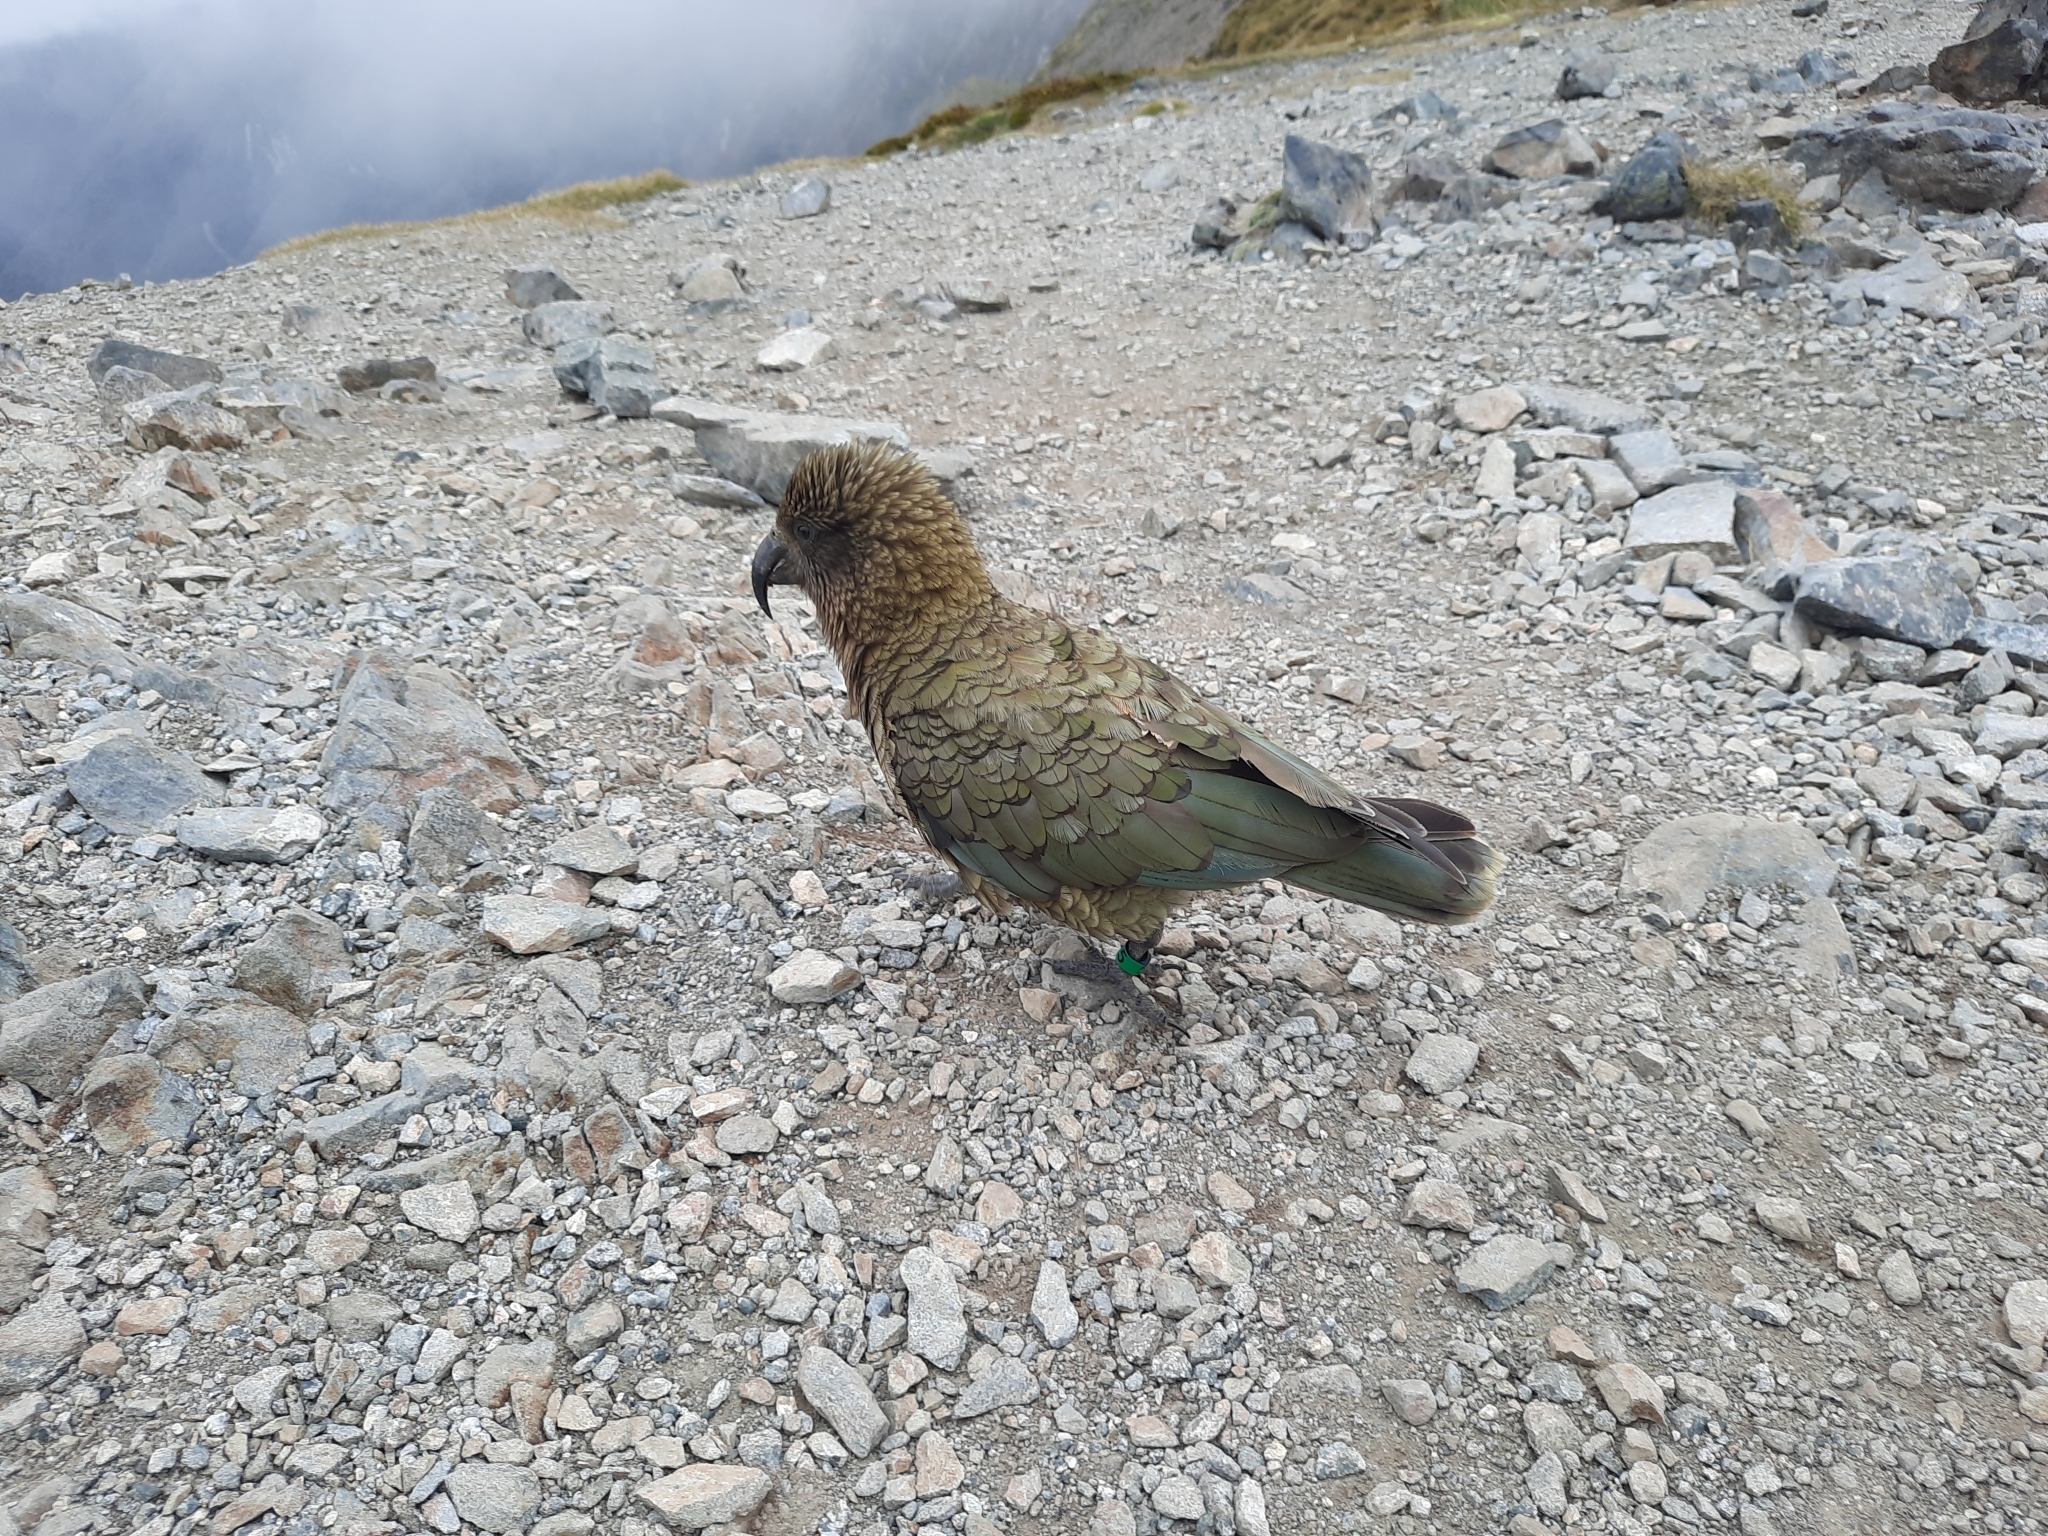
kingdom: Animalia
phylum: Chordata
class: Aves
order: Psittaciformes
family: Psittacidae
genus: Nestor
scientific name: Nestor notabilis
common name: Kea
